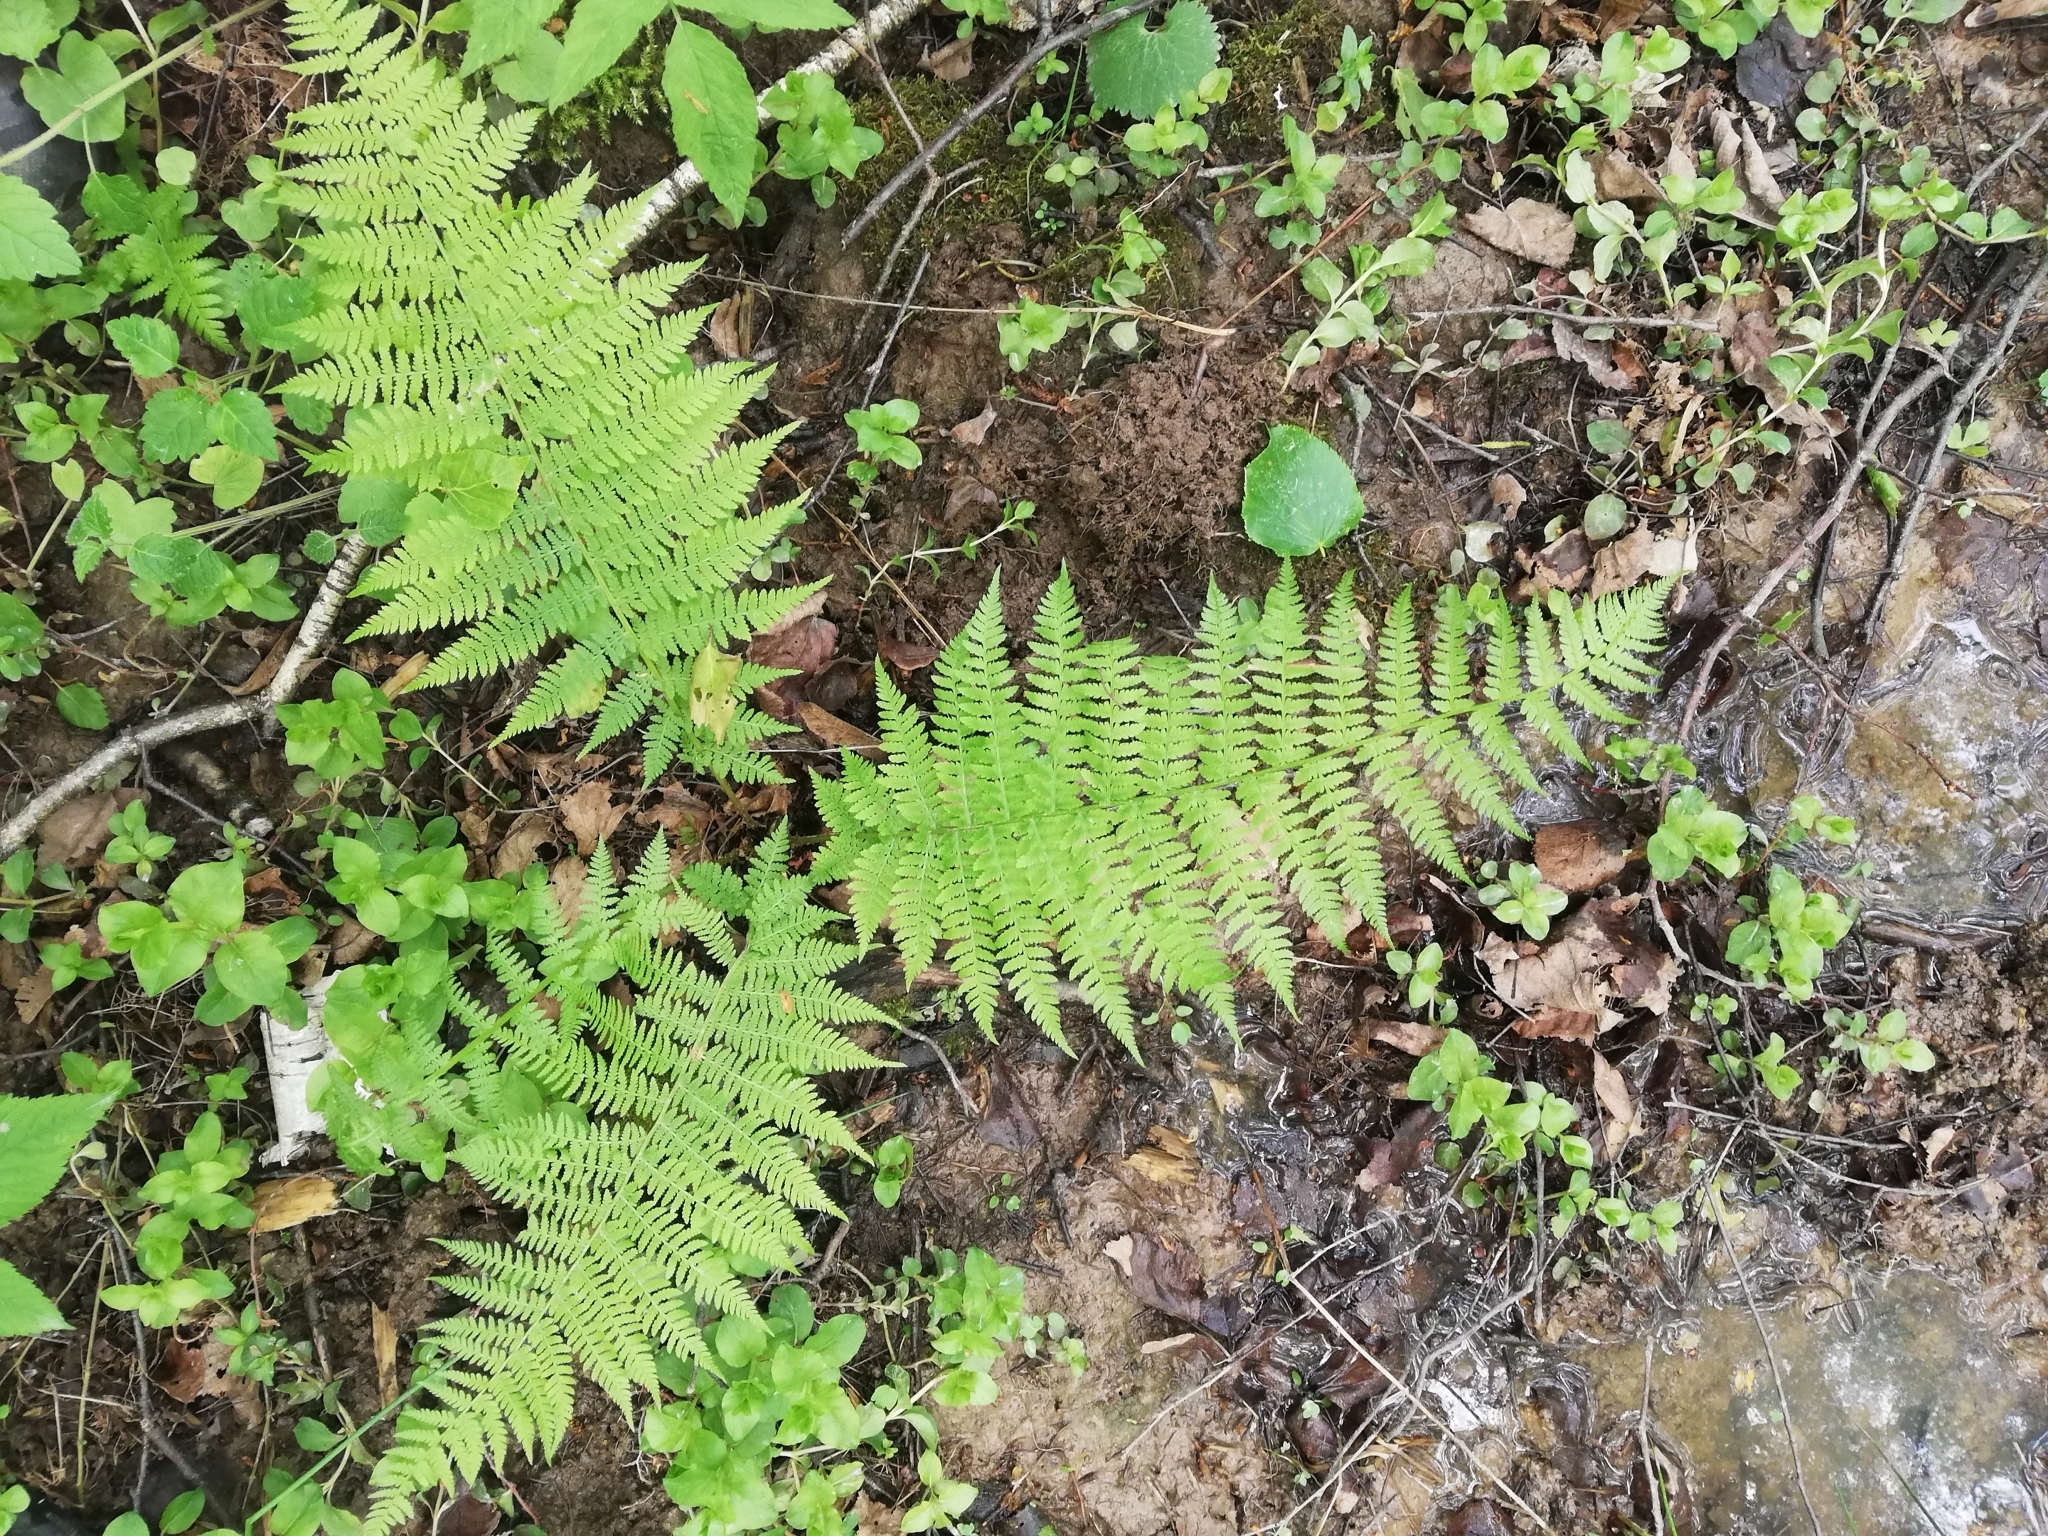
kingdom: Plantae
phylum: Tracheophyta
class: Polypodiopsida
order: Polypodiales
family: Athyriaceae
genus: Athyrium
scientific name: Athyrium filix-femina
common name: Lady fern
